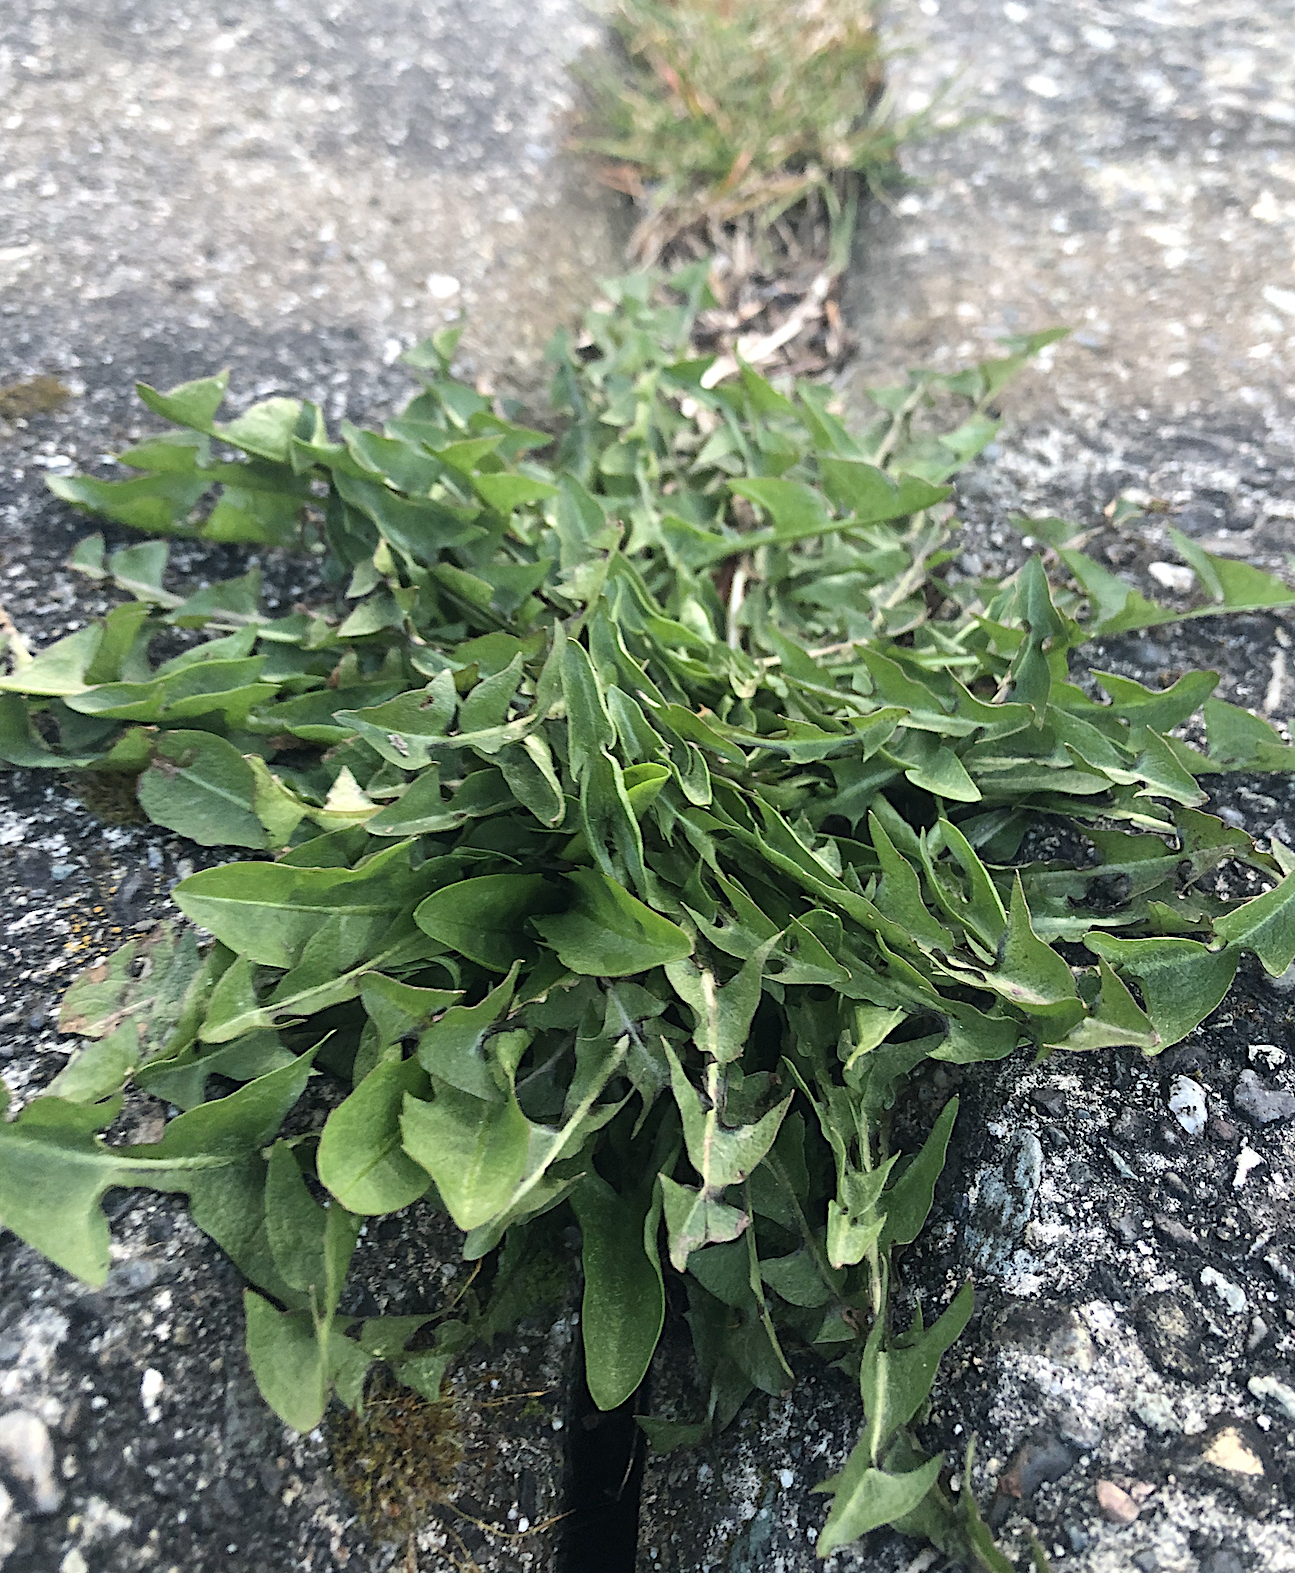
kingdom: Plantae
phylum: Tracheophyta
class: Magnoliopsida
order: Asterales
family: Asteraceae
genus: Taraxacum
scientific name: Taraxacum officinale
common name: Common dandelion
